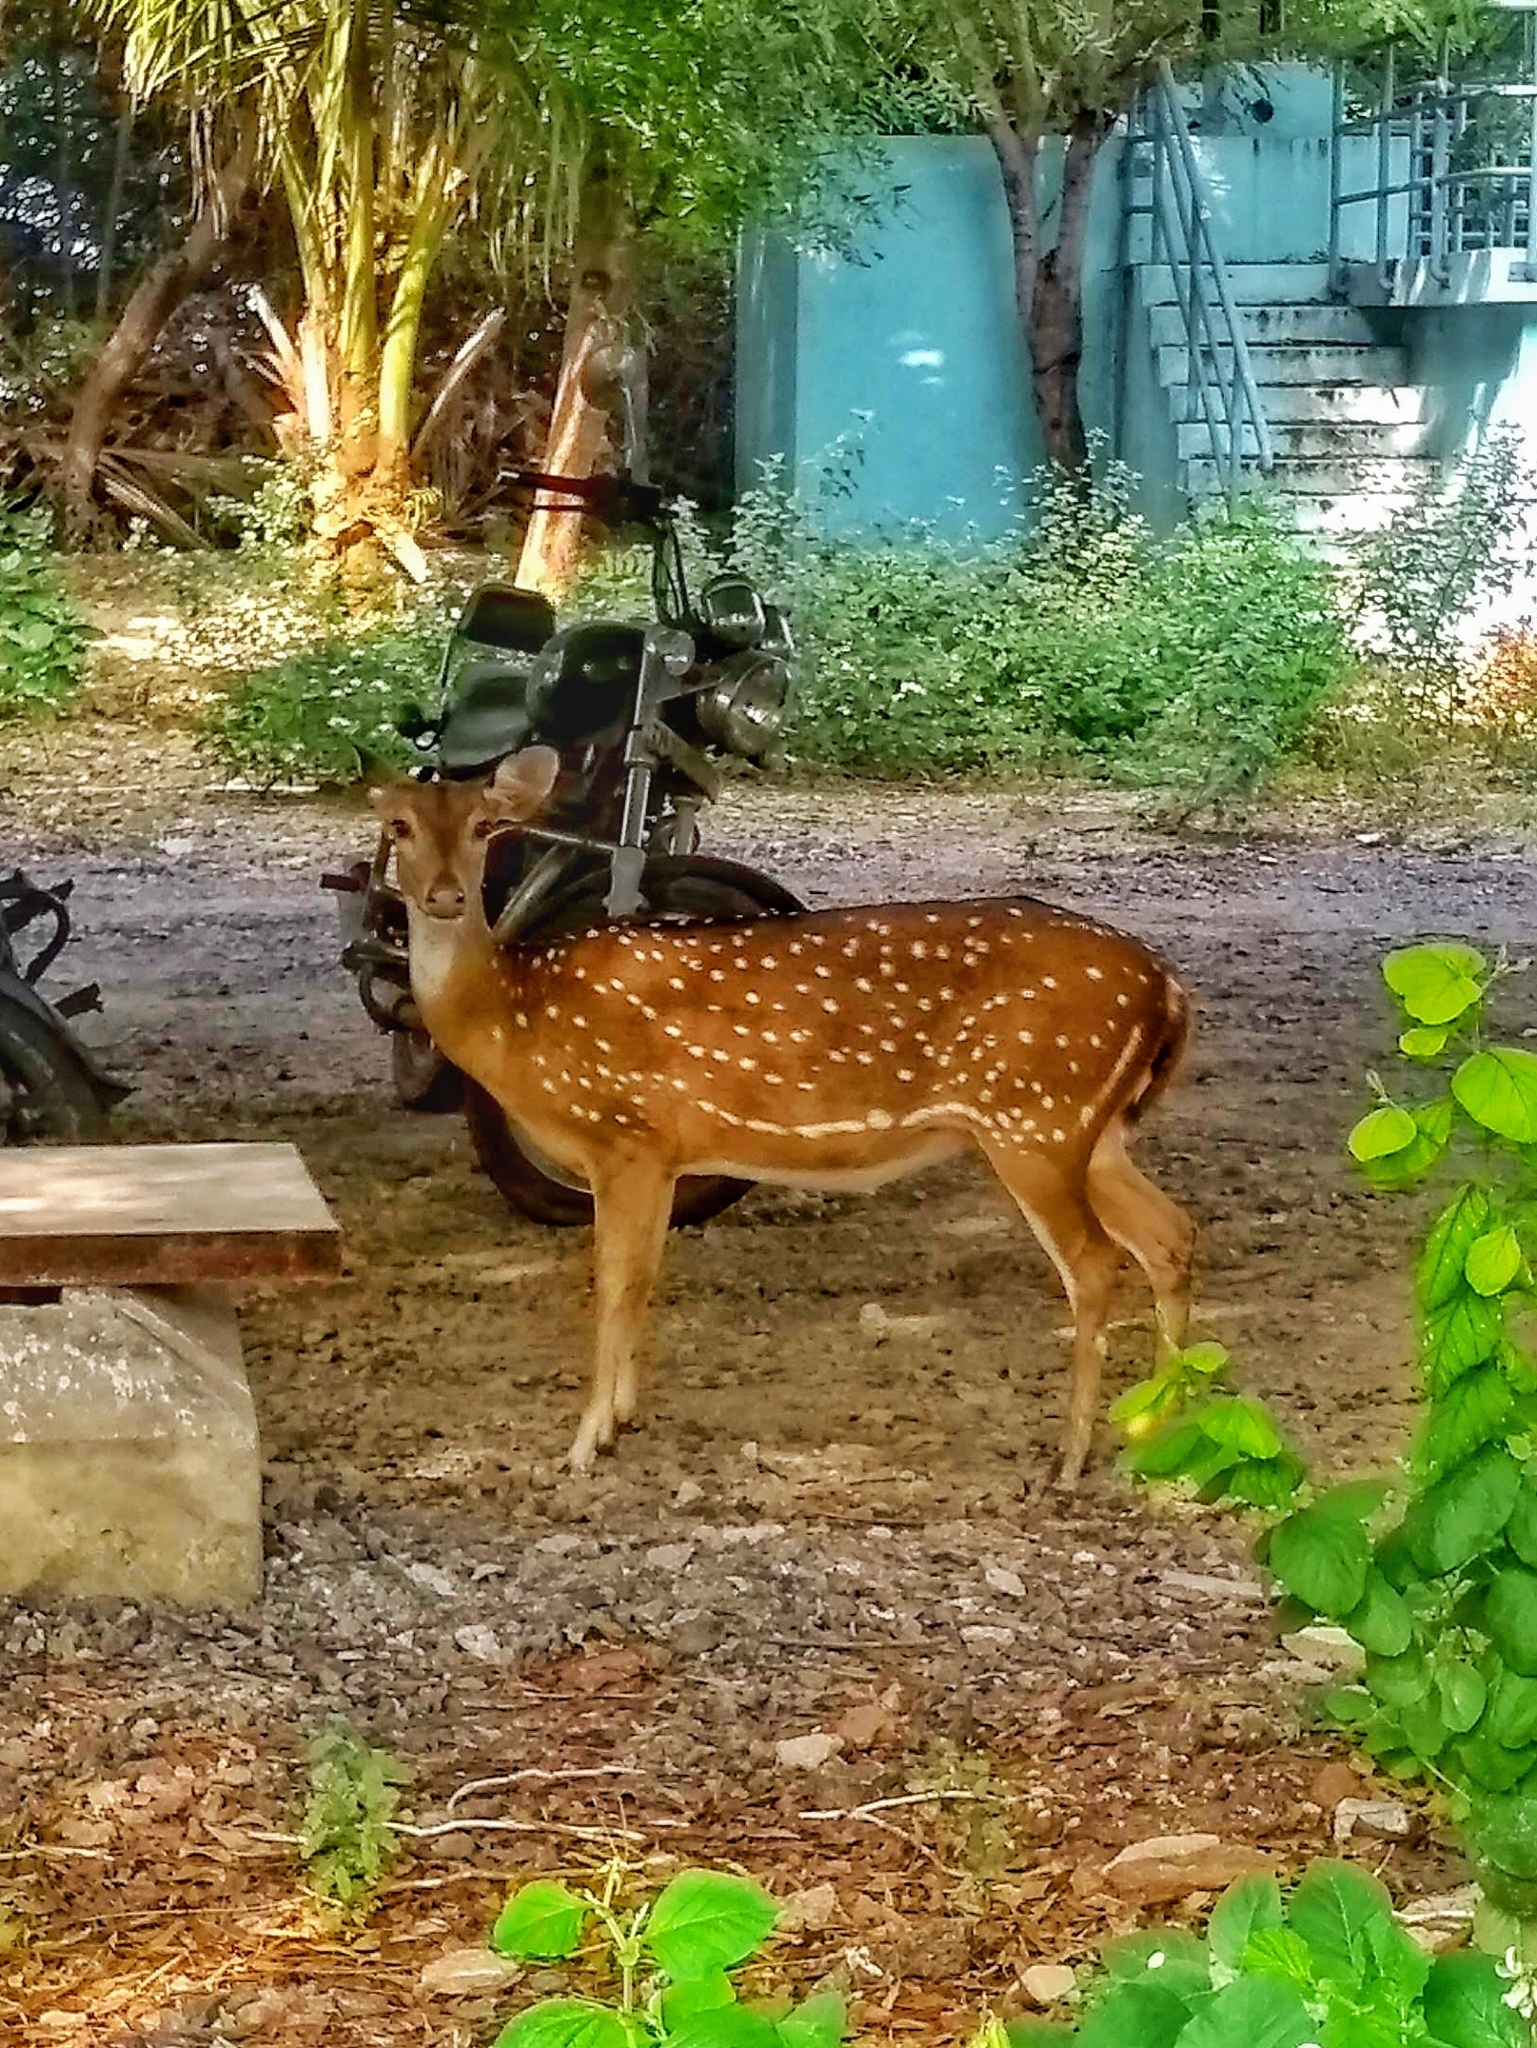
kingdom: Animalia
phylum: Chordata
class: Mammalia
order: Artiodactyla
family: Cervidae
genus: Axis
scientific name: Axis axis
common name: Chital
